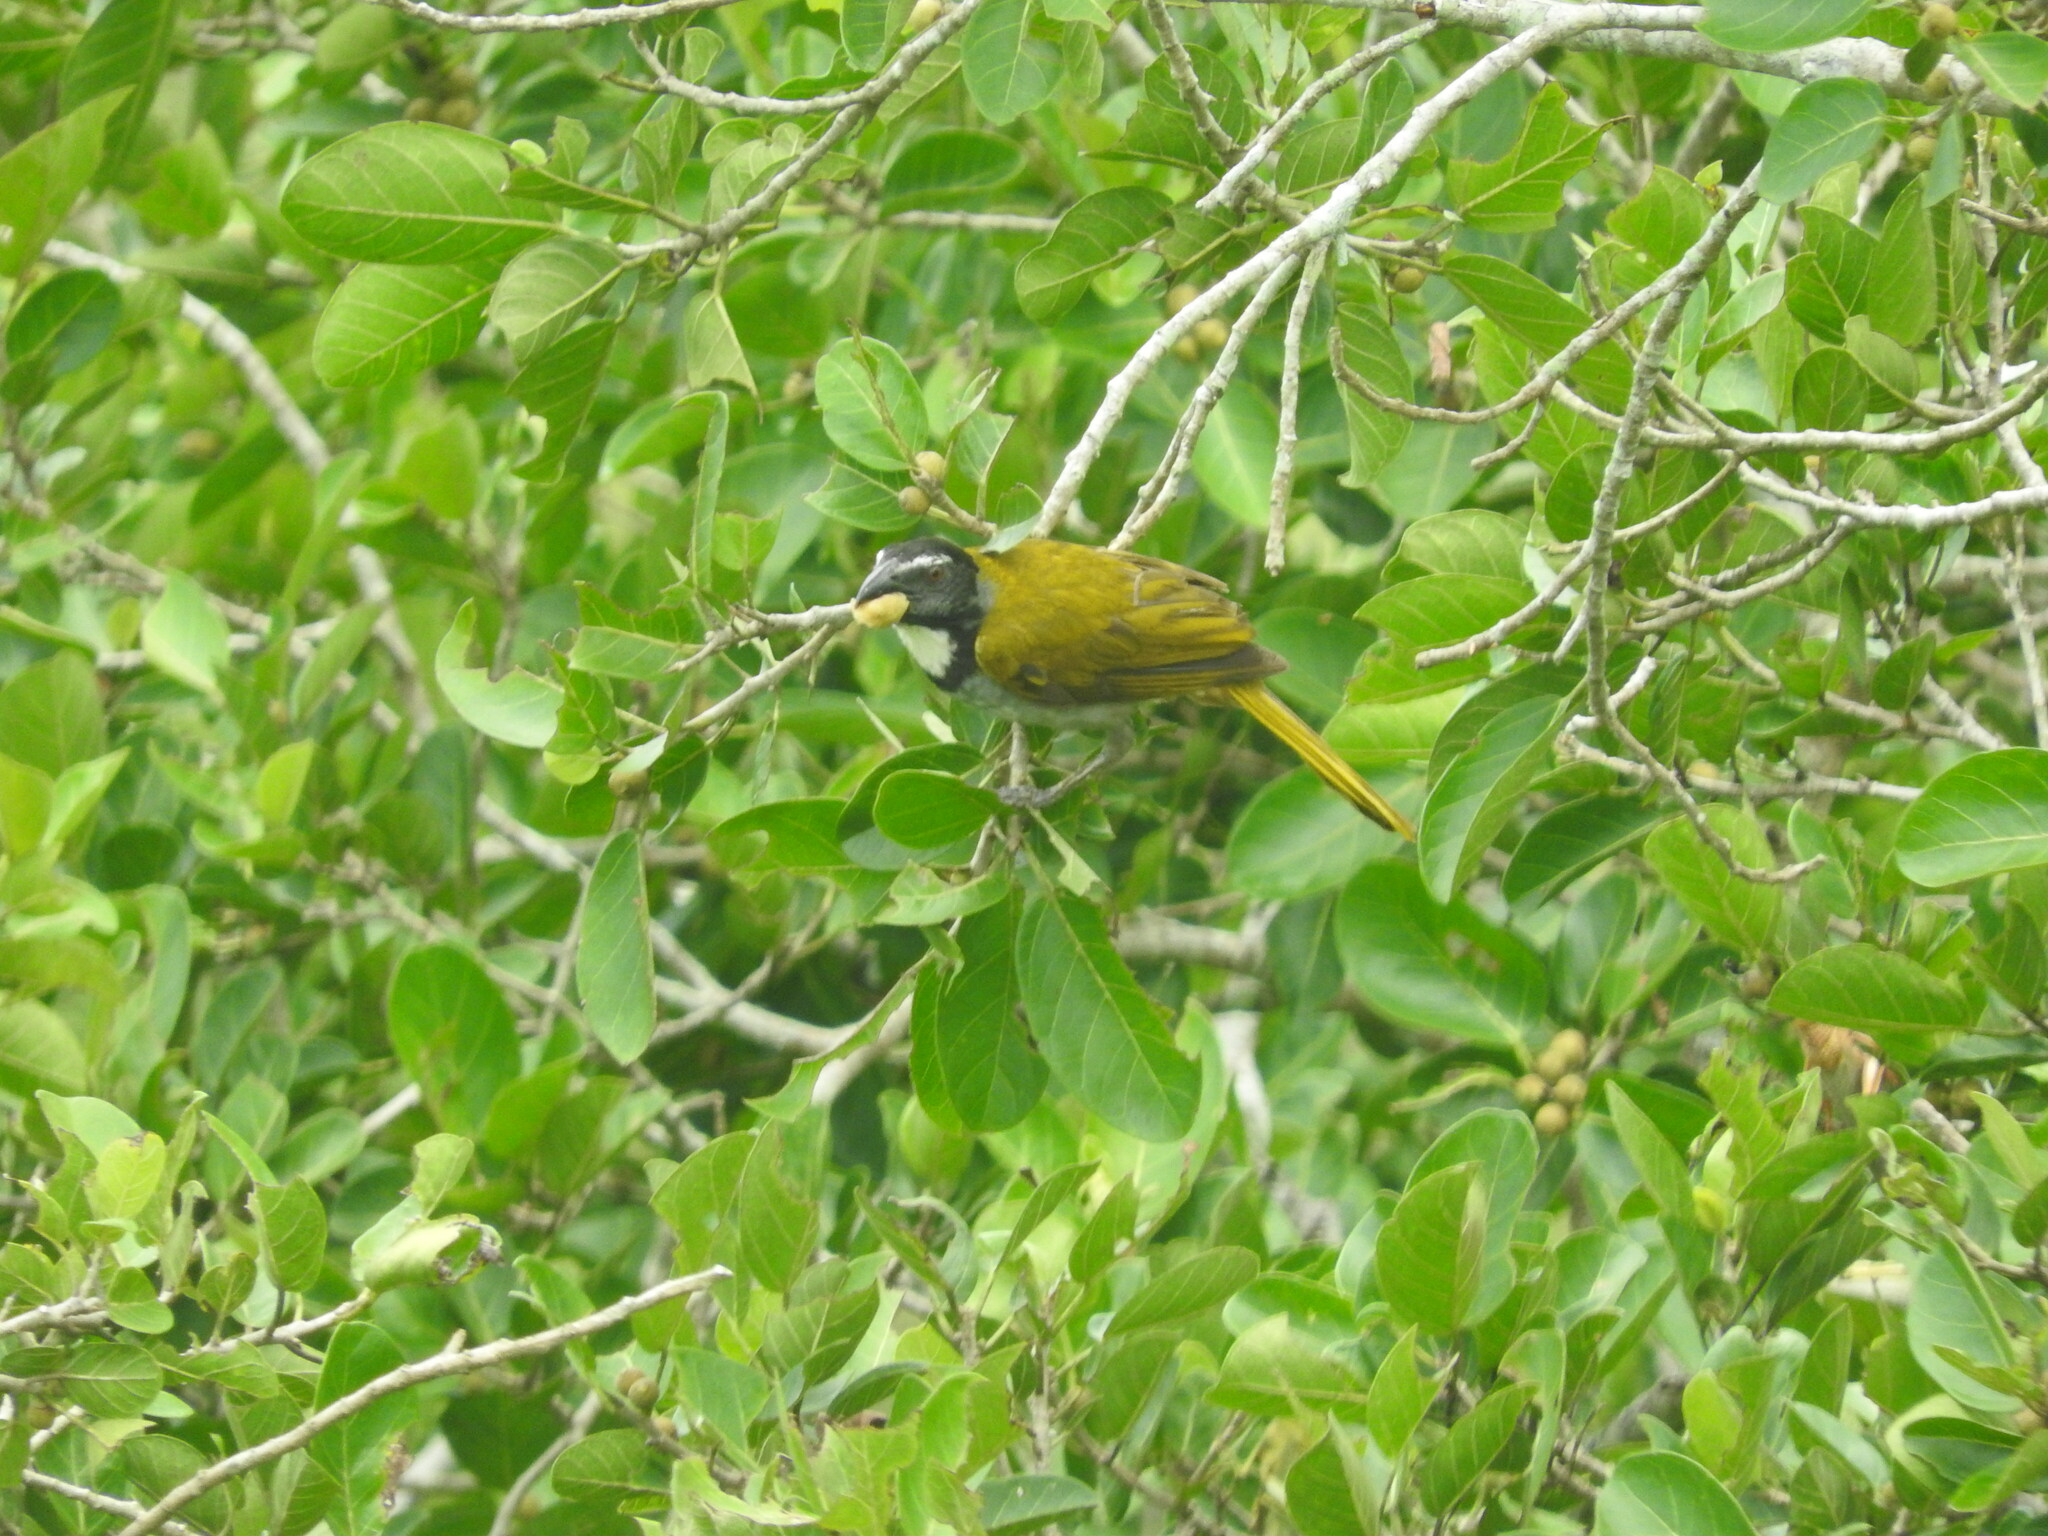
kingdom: Animalia
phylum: Chordata
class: Aves
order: Passeriformes
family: Thraupidae
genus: Saltator
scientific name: Saltator atriceps
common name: Black-headed saltator
